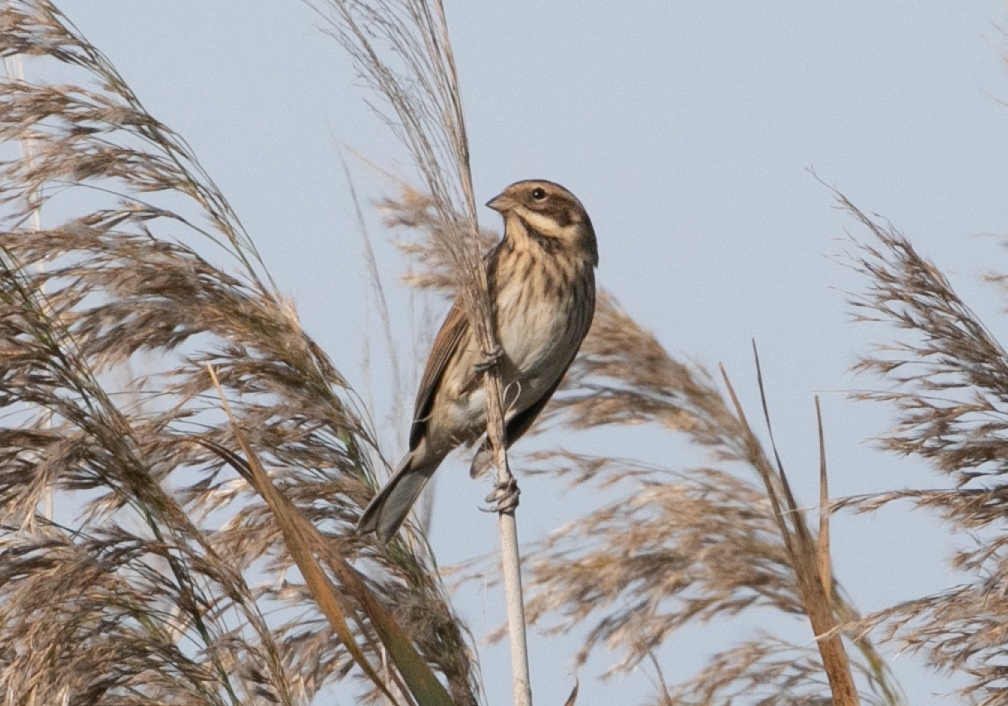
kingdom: Animalia
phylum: Chordata
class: Aves
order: Passeriformes
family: Emberizidae
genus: Emberiza
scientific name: Emberiza schoeniclus
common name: Reed bunting
